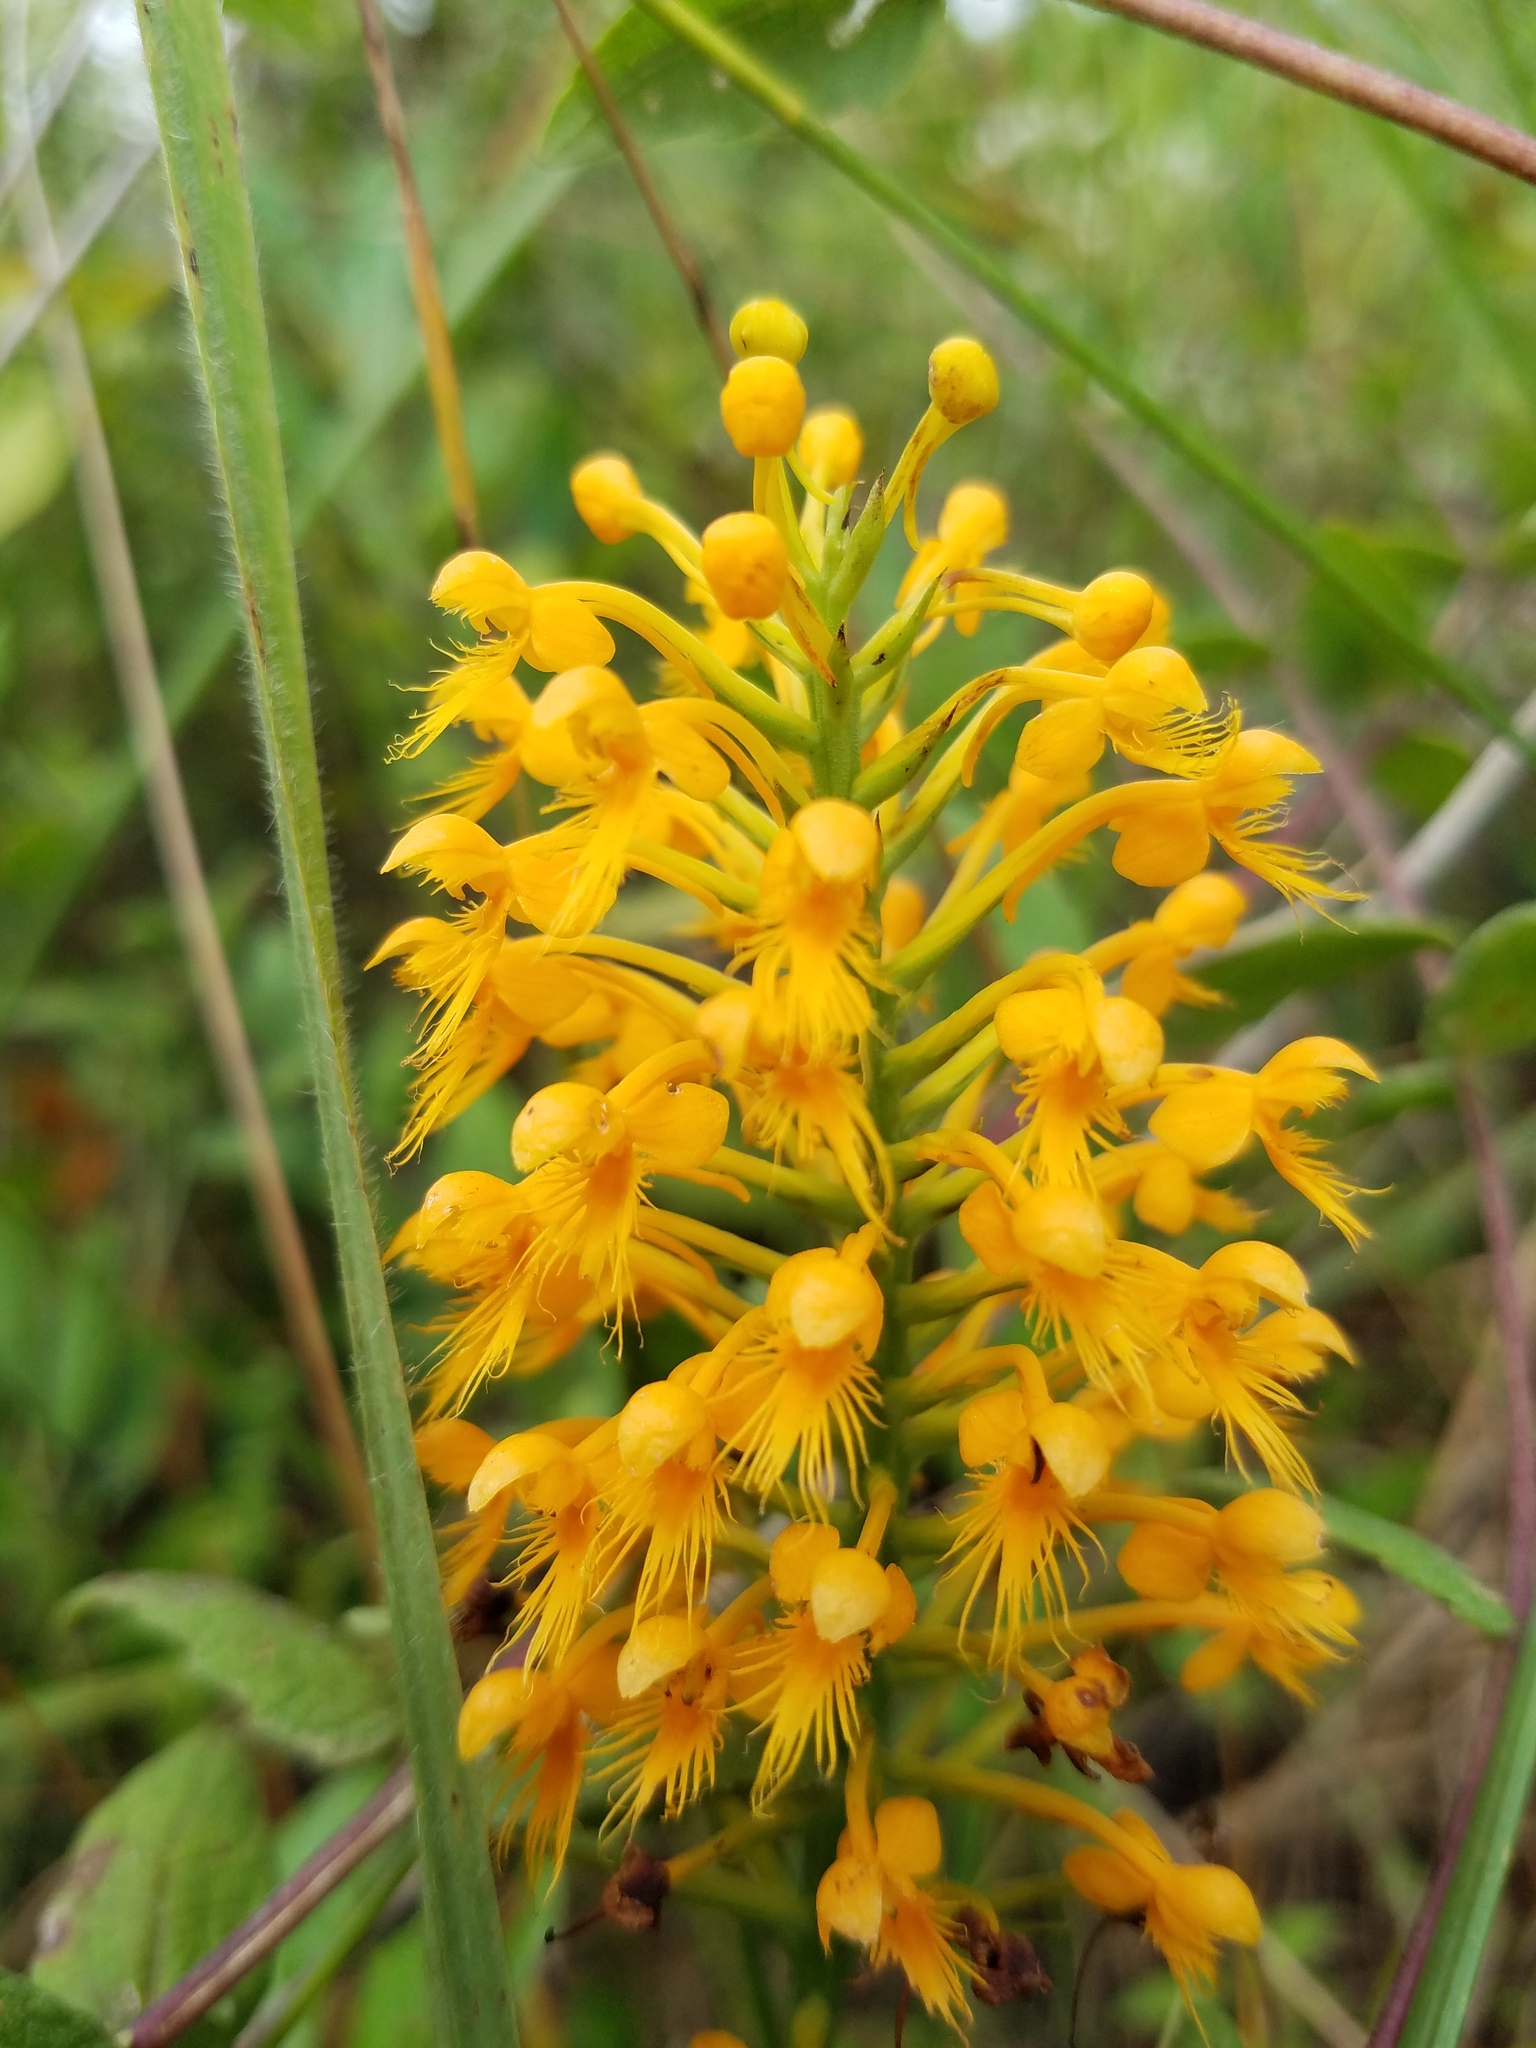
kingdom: Plantae
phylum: Tracheophyta
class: Liliopsida
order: Asparagales
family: Orchidaceae
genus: Platanthera
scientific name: Platanthera cristata
